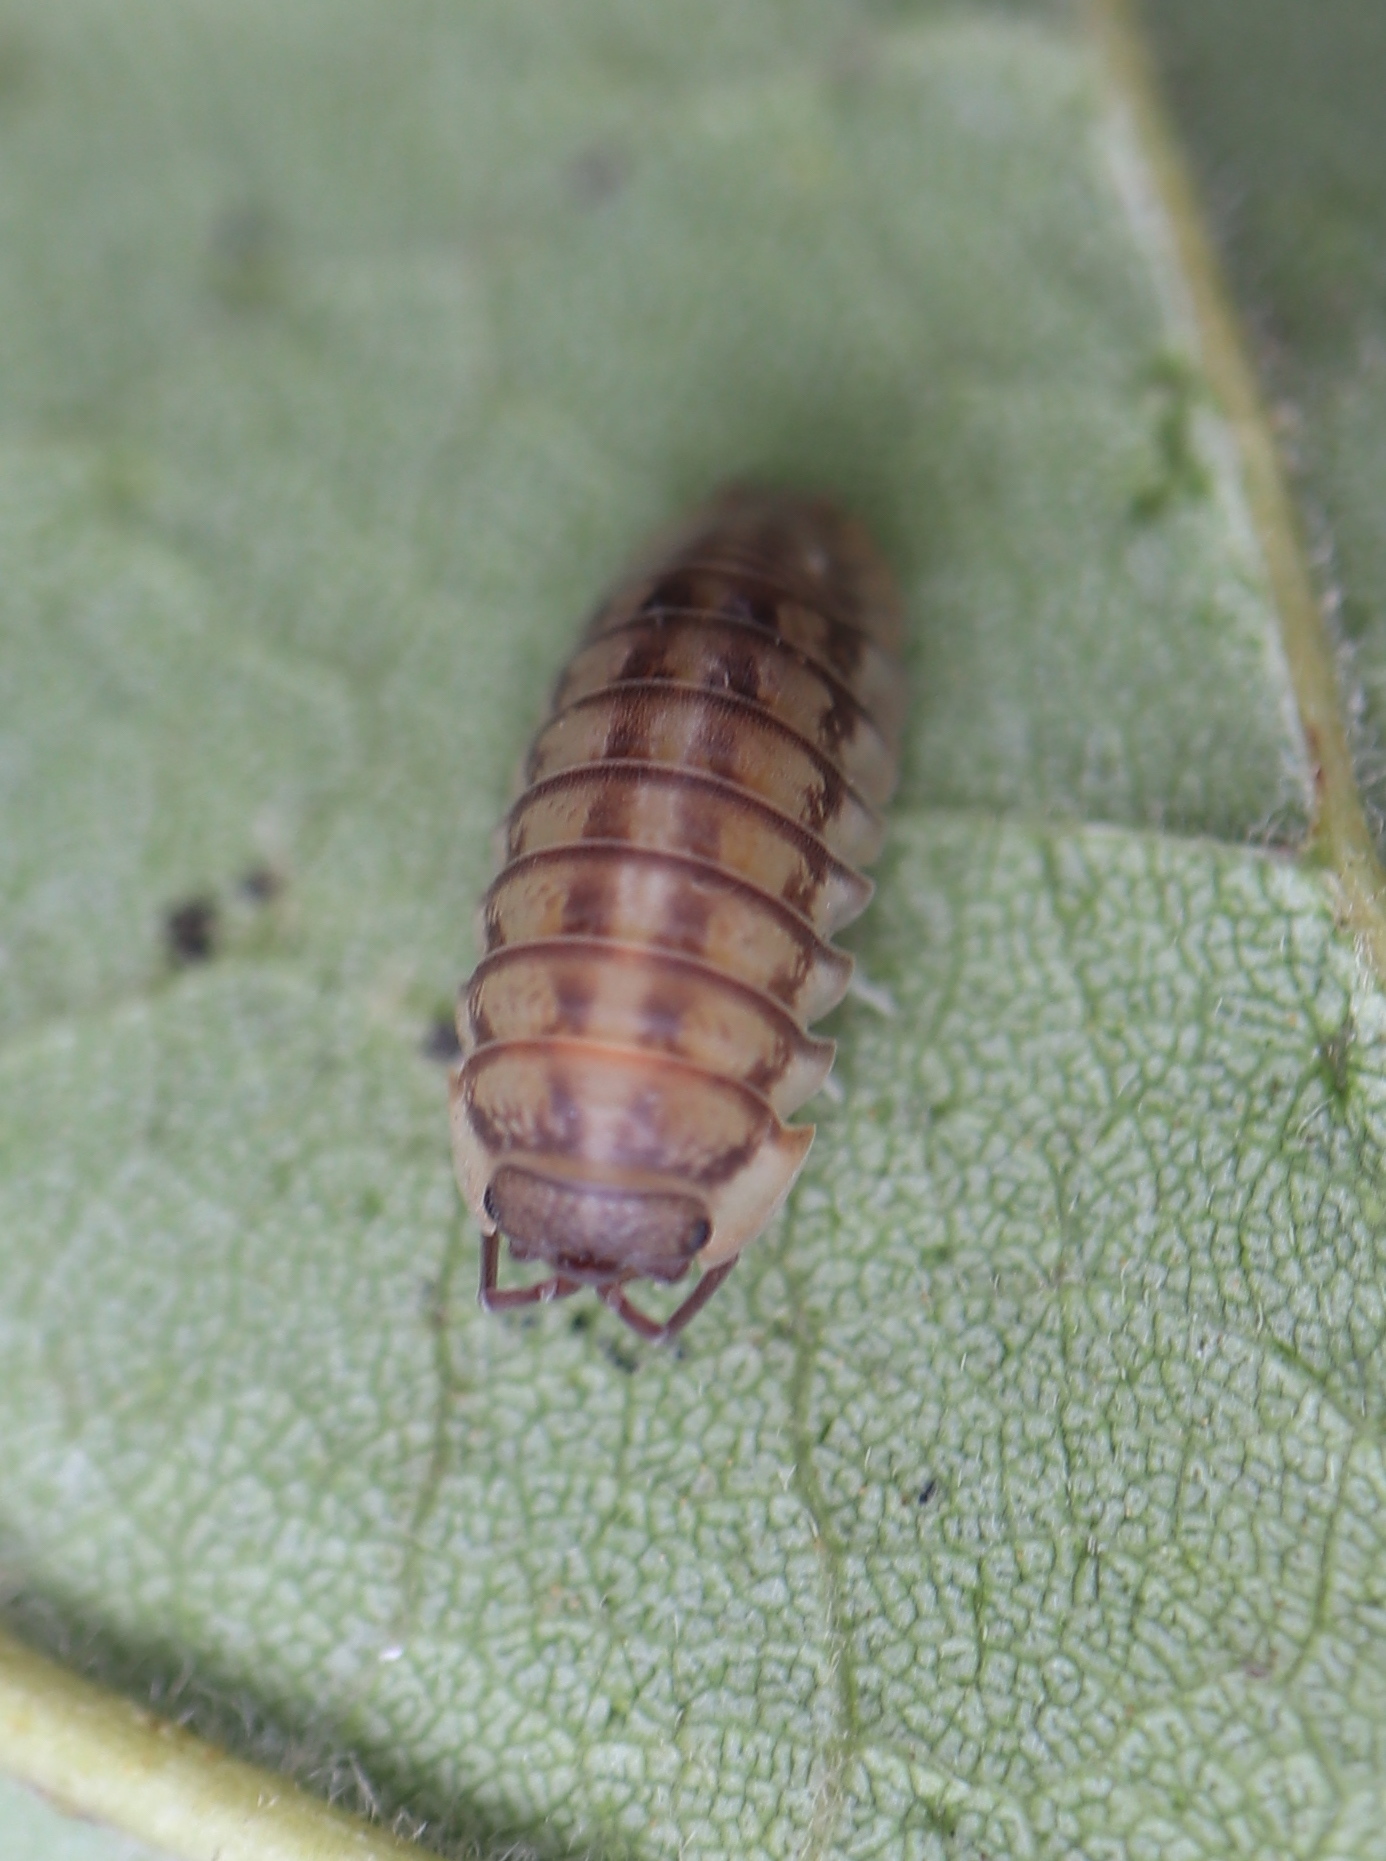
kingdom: Animalia
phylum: Arthropoda
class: Malacostraca
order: Isopoda
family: Armadillidiidae
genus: Armadillidium
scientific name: Armadillidium nasatum
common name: Isopod
